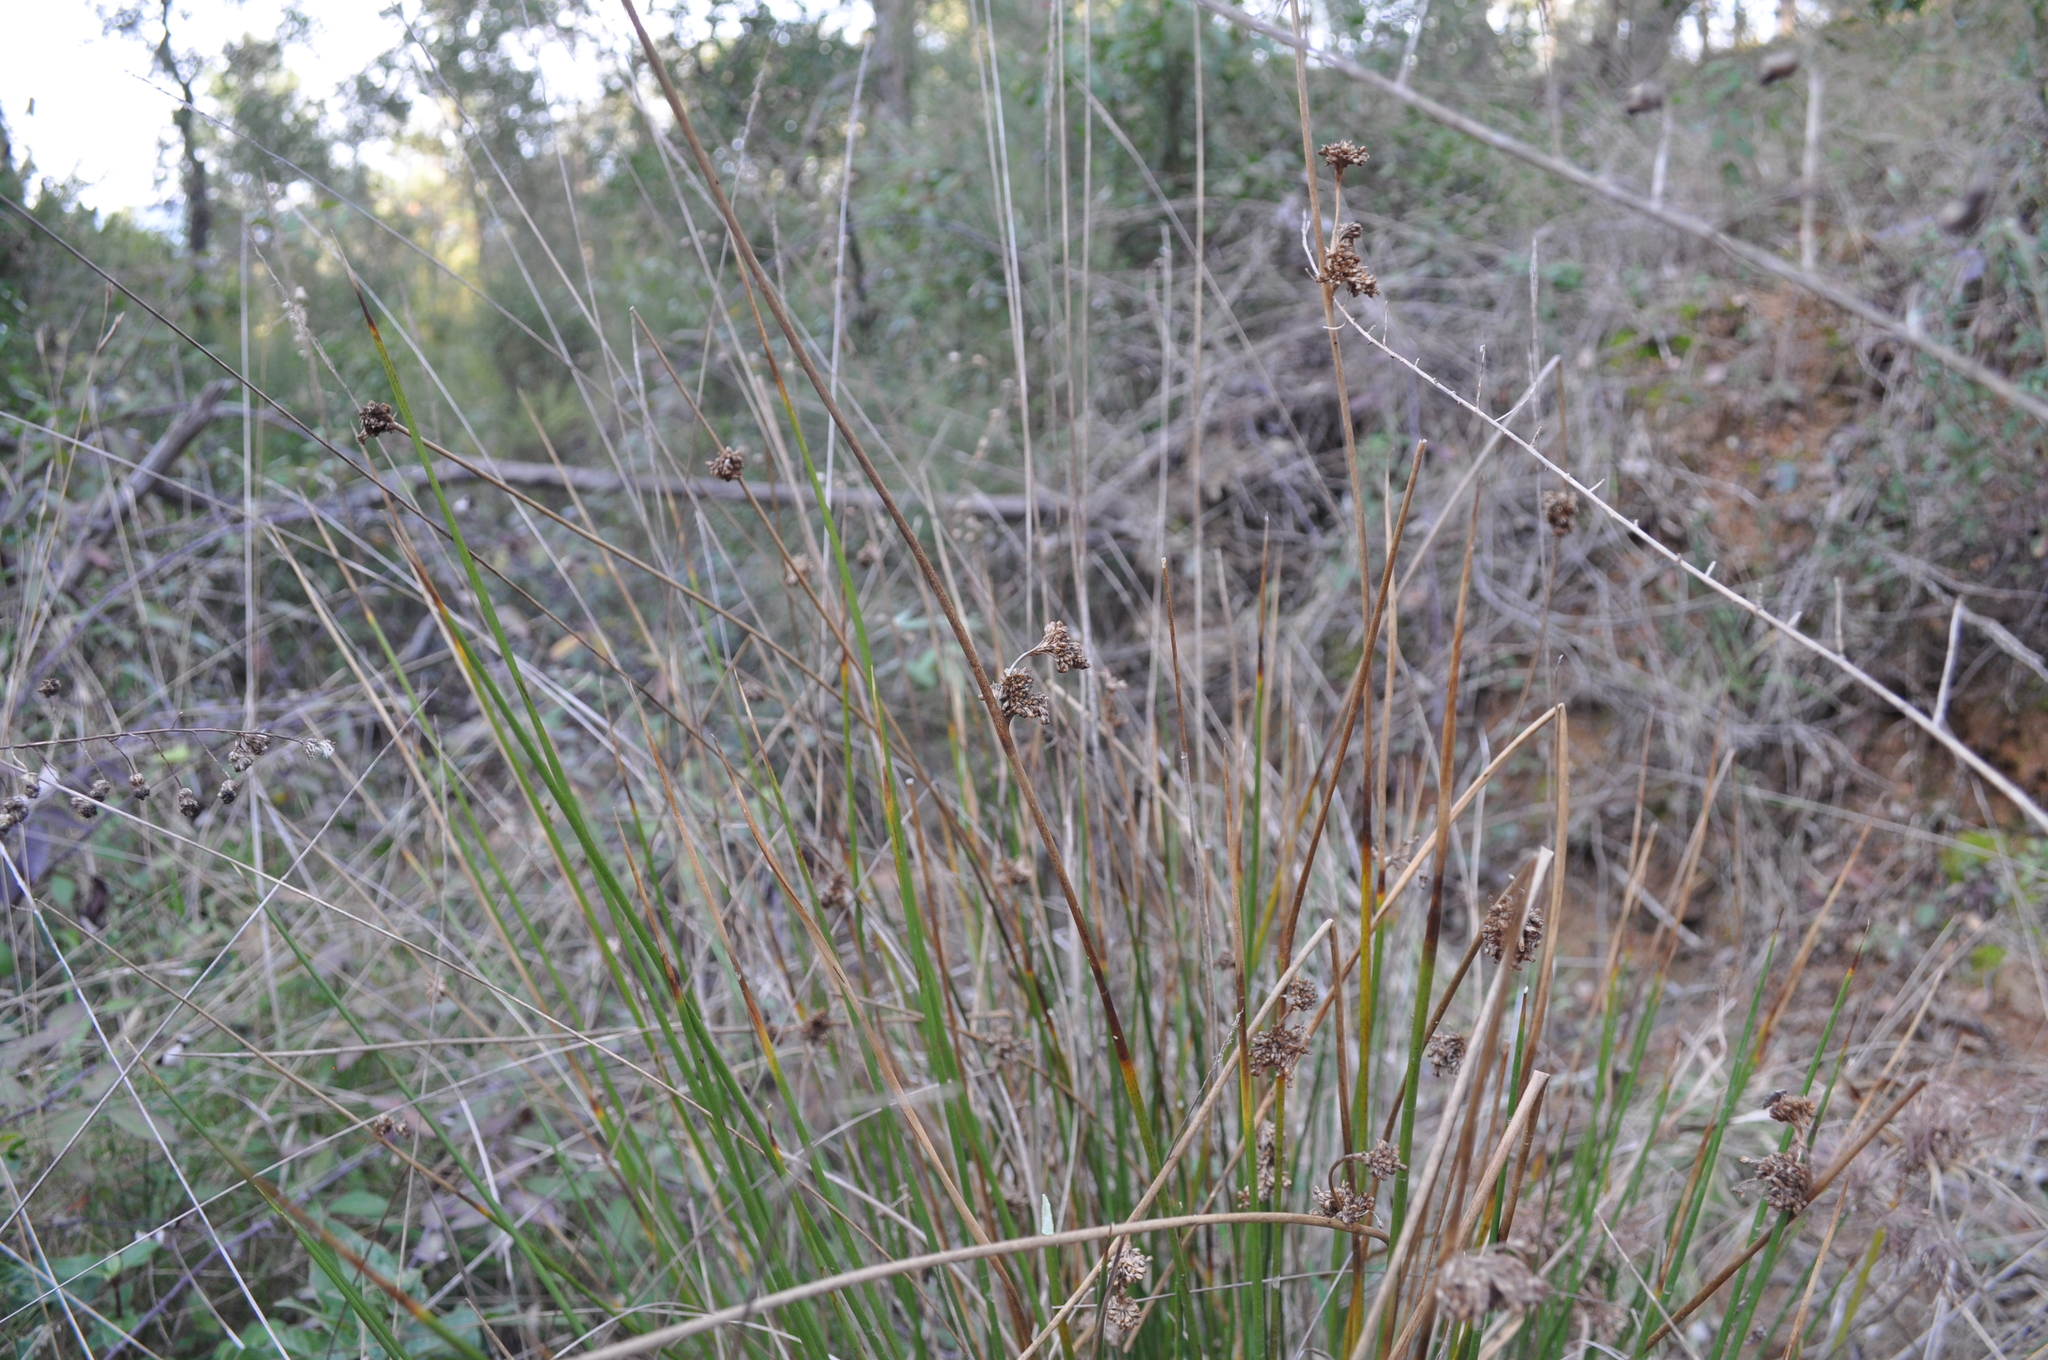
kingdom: Plantae
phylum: Tracheophyta
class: Liliopsida
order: Poales
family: Juncaceae
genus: Juncus
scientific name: Juncus effusus
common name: Soft rush
